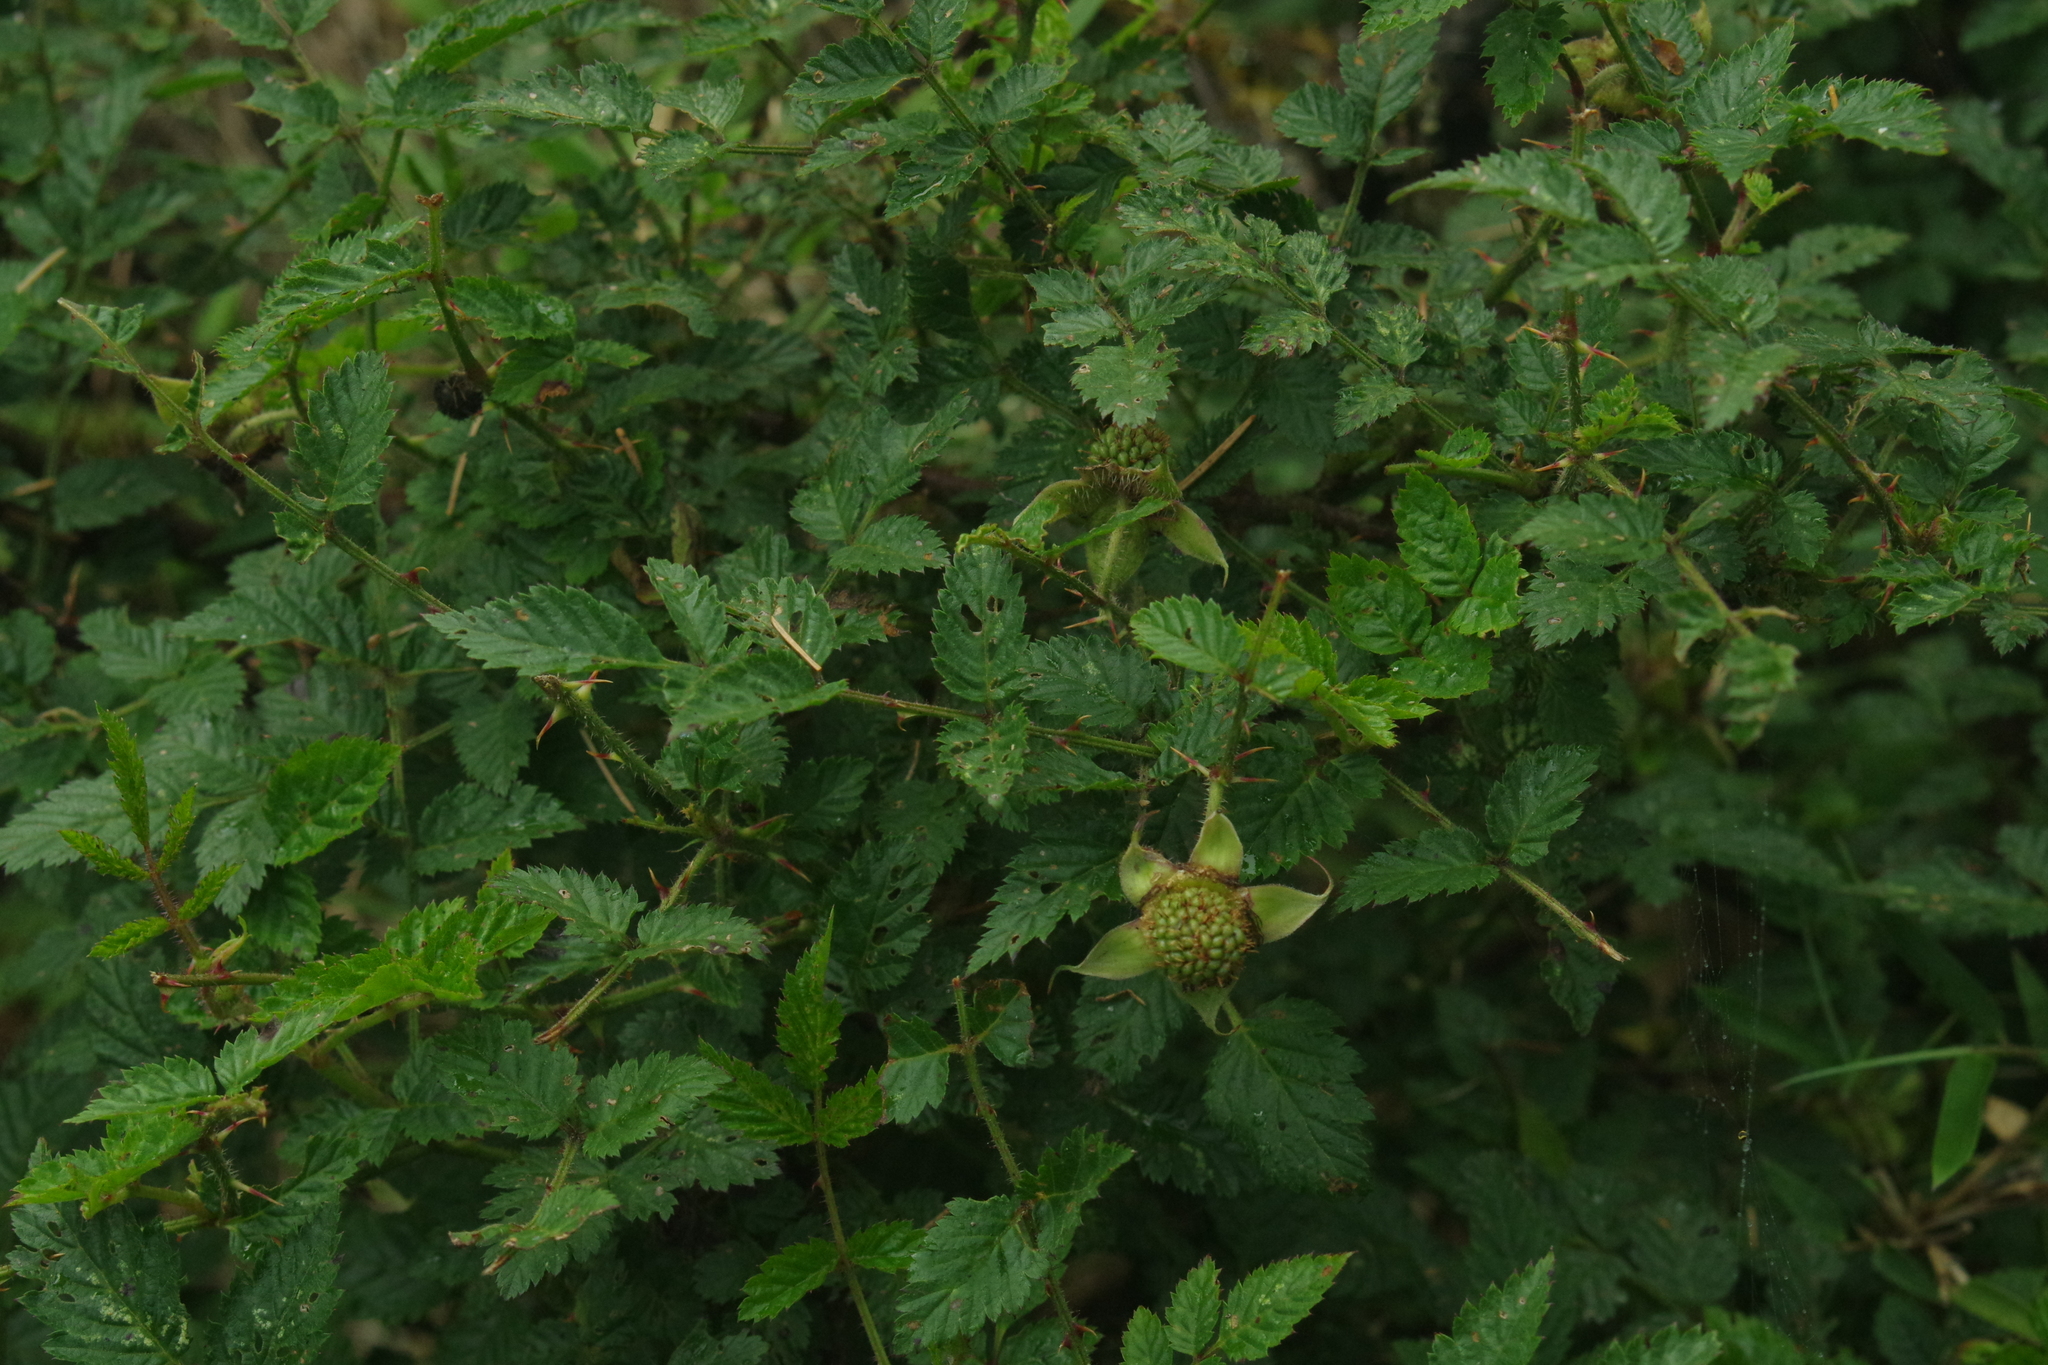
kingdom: Plantae
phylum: Tracheophyta
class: Magnoliopsida
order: Rosales
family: Rosaceae
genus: Rubus
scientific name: Rubus croceacanthus
